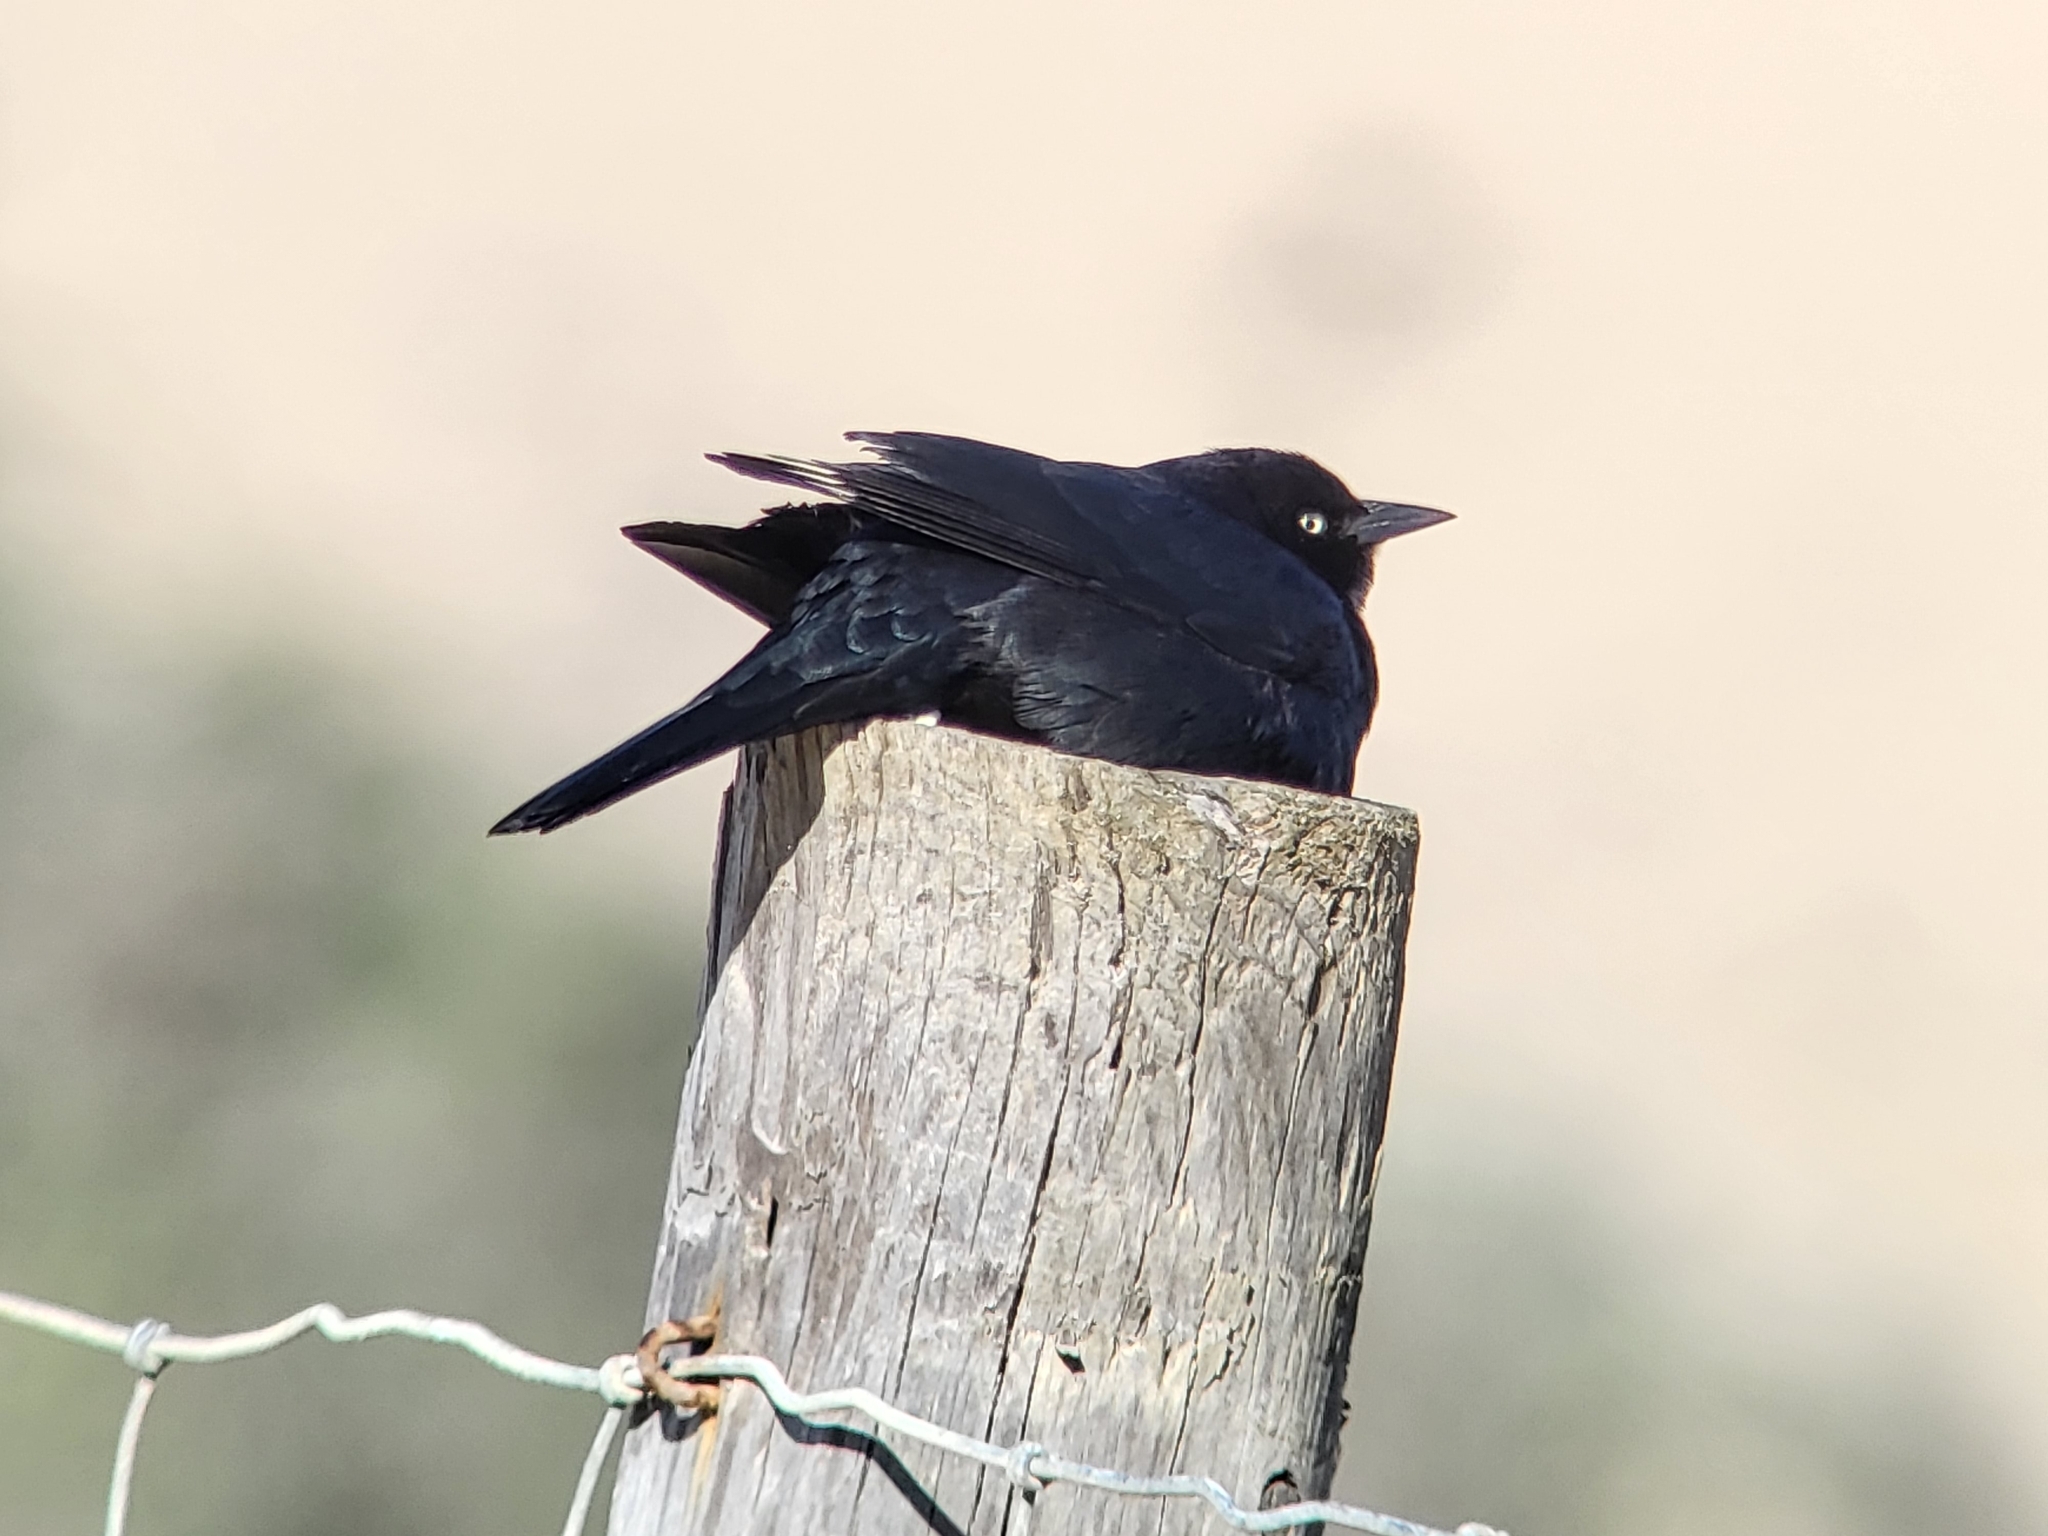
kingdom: Animalia
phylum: Chordata
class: Aves
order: Passeriformes
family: Icteridae
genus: Euphagus
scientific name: Euphagus cyanocephalus
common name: Brewer's blackbird
